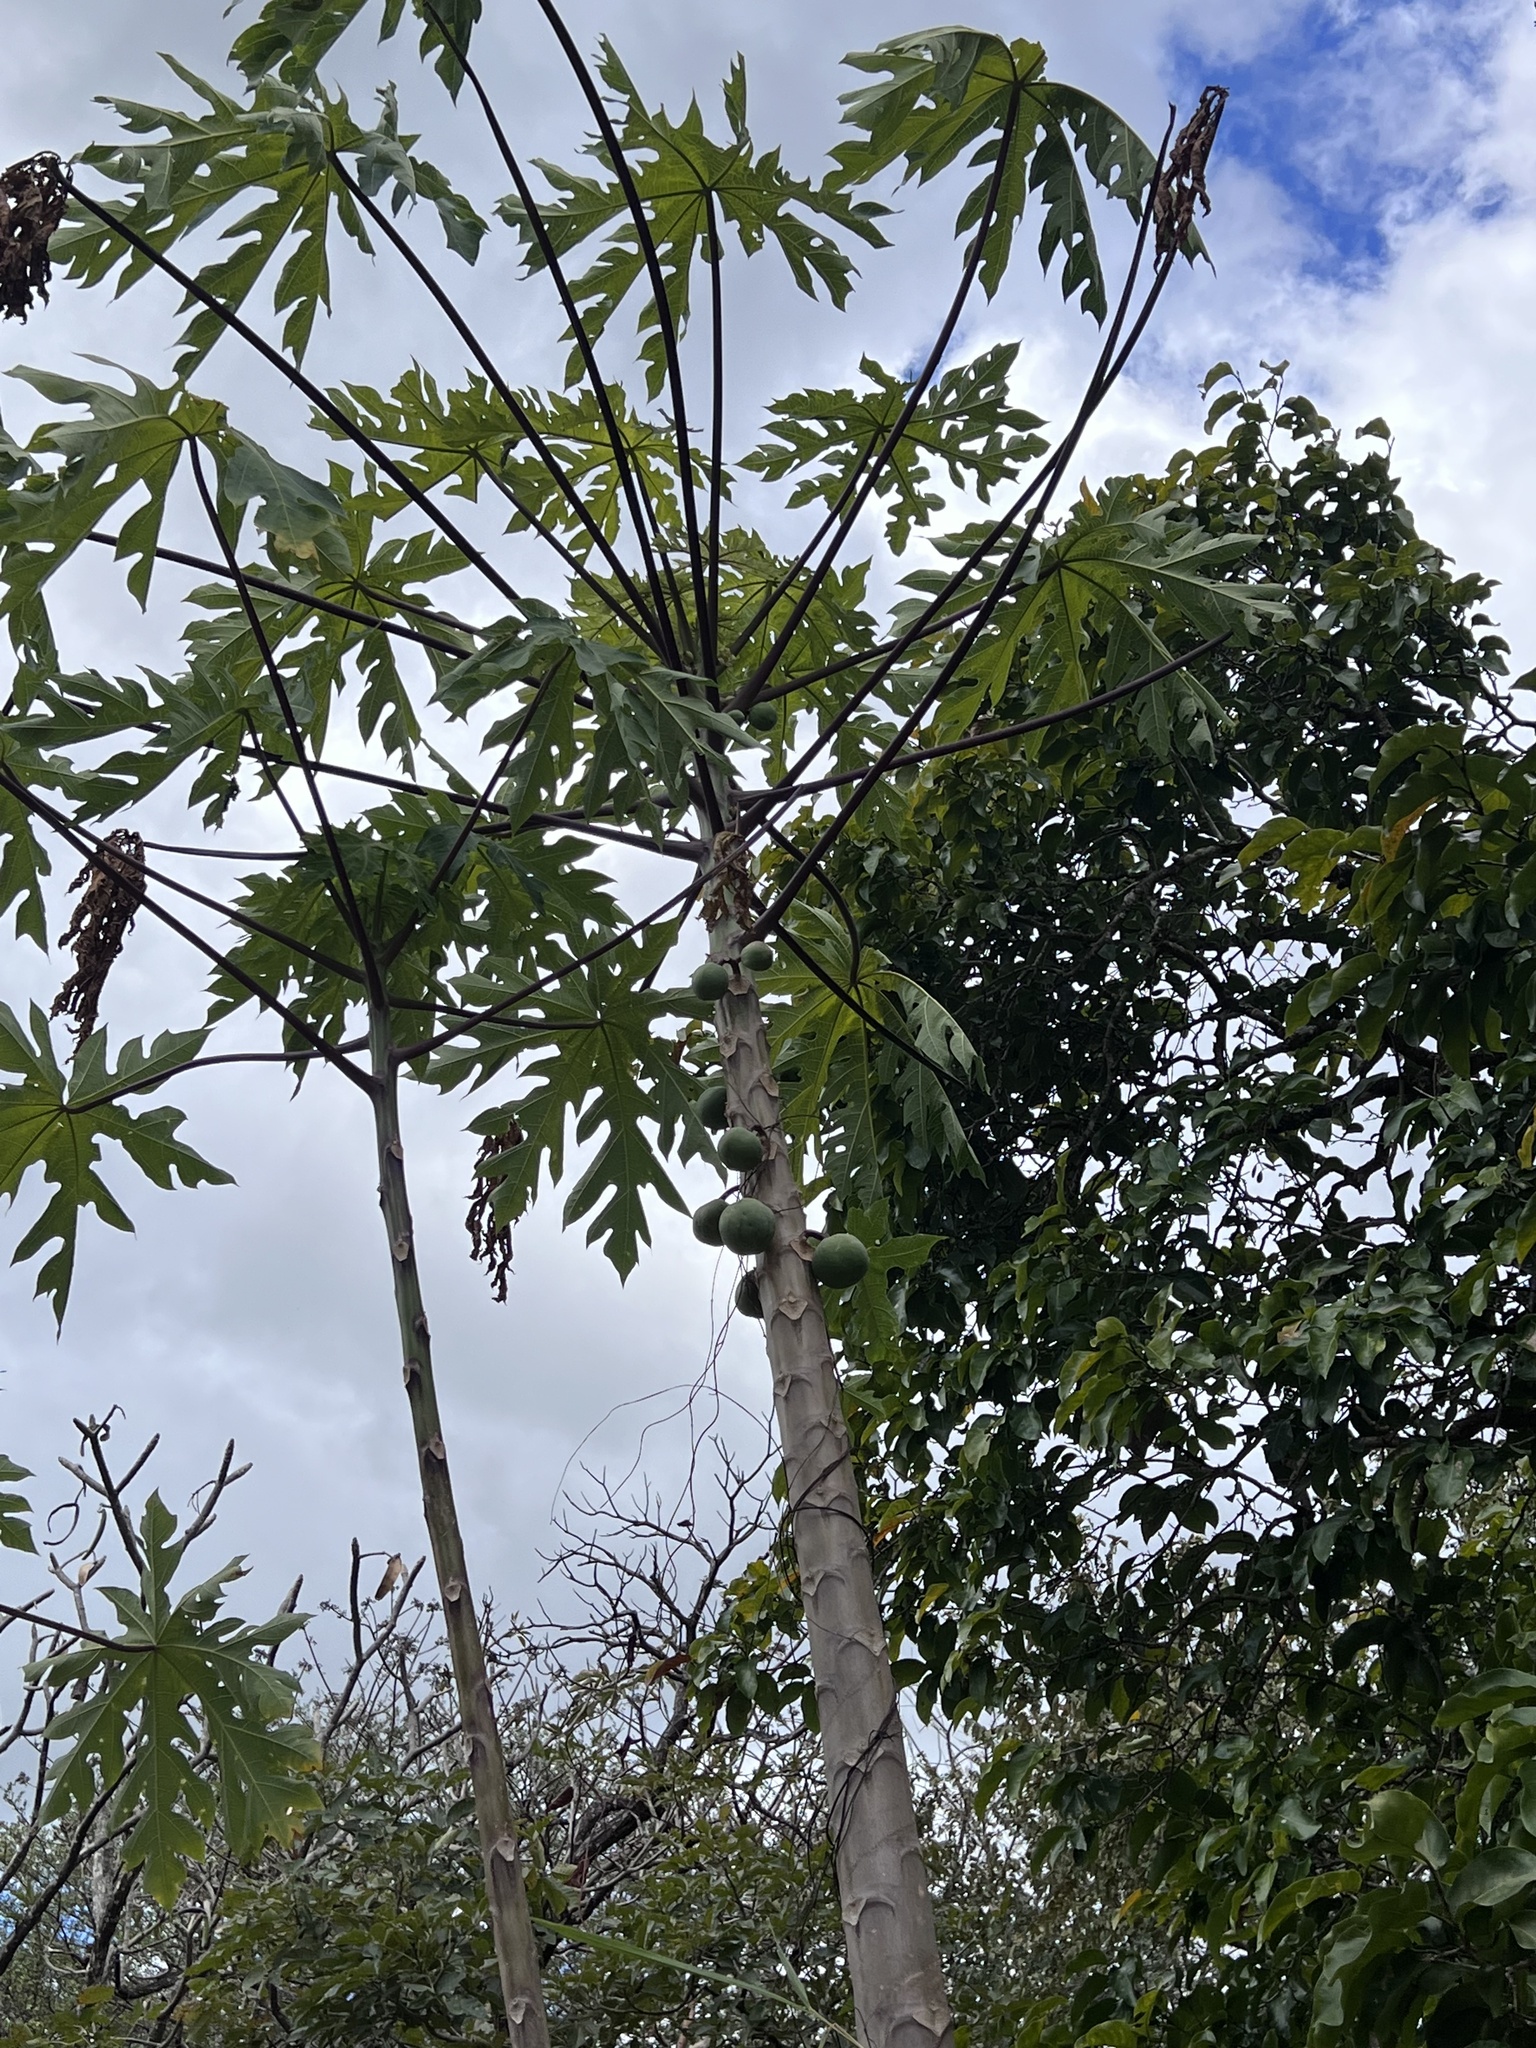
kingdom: Plantae
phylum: Tracheophyta
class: Magnoliopsida
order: Brassicales
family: Caricaceae
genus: Carica
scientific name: Carica papaya
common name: Papaya
